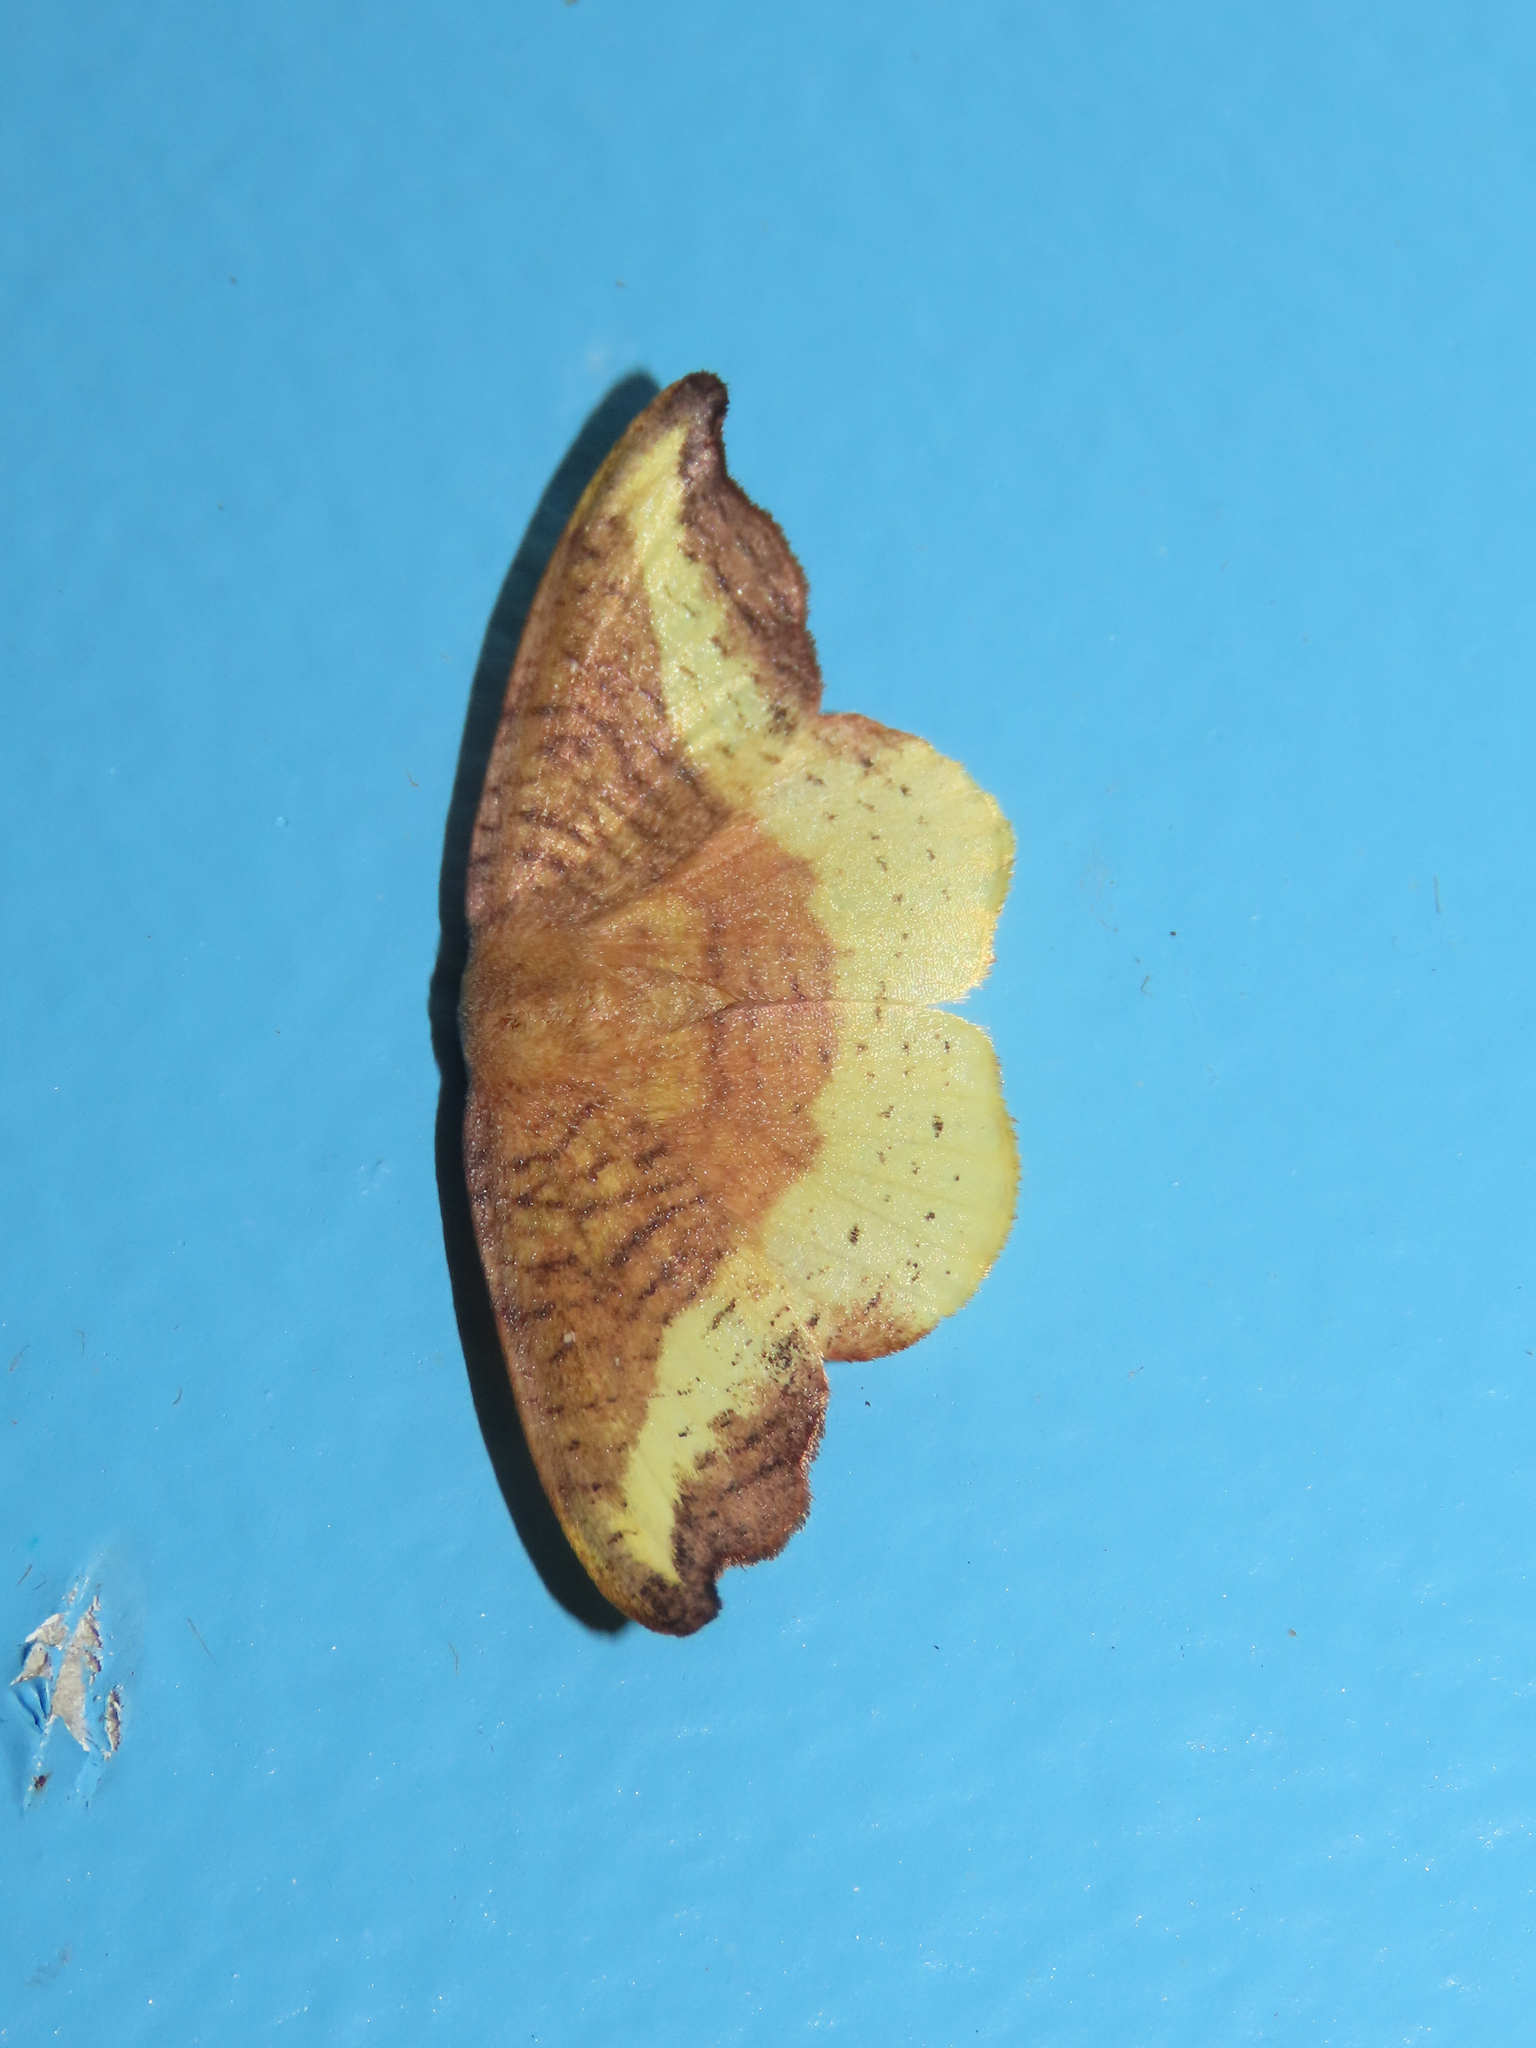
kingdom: Animalia
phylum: Arthropoda
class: Insecta
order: Lepidoptera
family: Drepanidae
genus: Oreta
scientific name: Oreta rosea
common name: Rose hooktip
